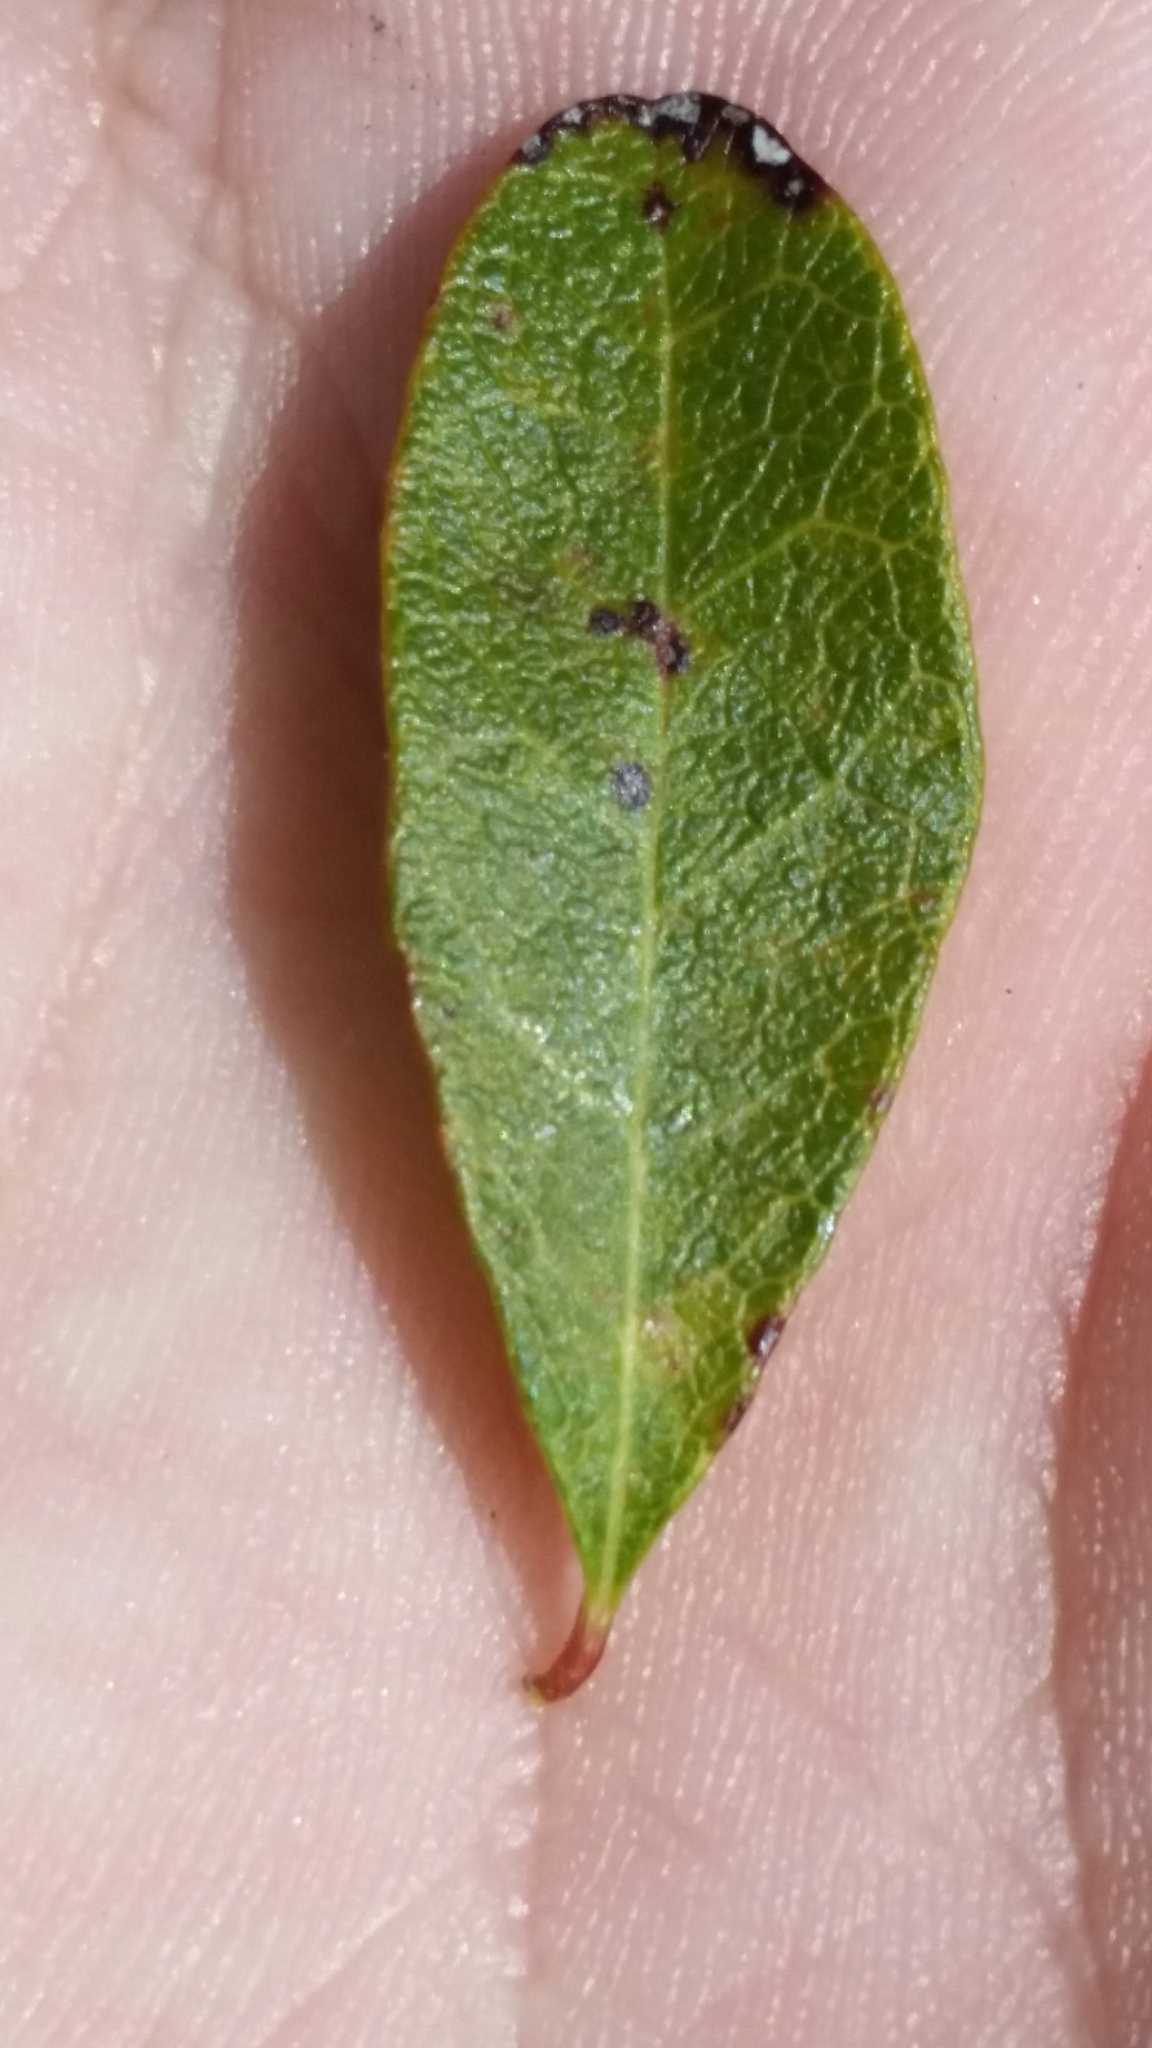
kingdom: Plantae
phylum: Tracheophyta
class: Magnoliopsida
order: Ericales
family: Sapotaceae
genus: Sideroxylon
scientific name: Sideroxylon reclinatum
